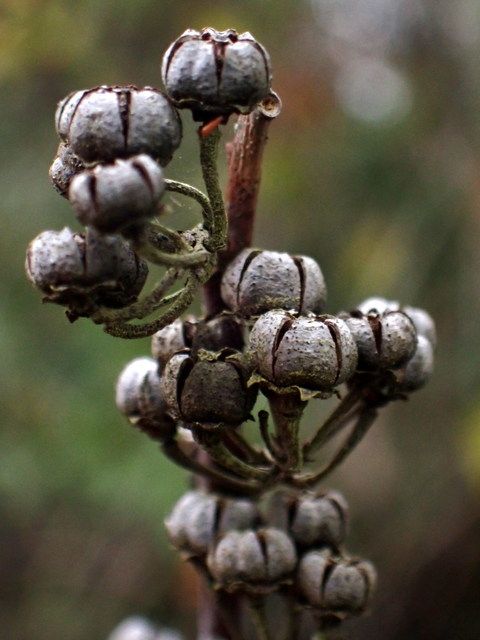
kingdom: Plantae
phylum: Tracheophyta
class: Magnoliopsida
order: Ericales
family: Ericaceae
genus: Agarista
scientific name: Agarista populifolia
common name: Pipeplant
